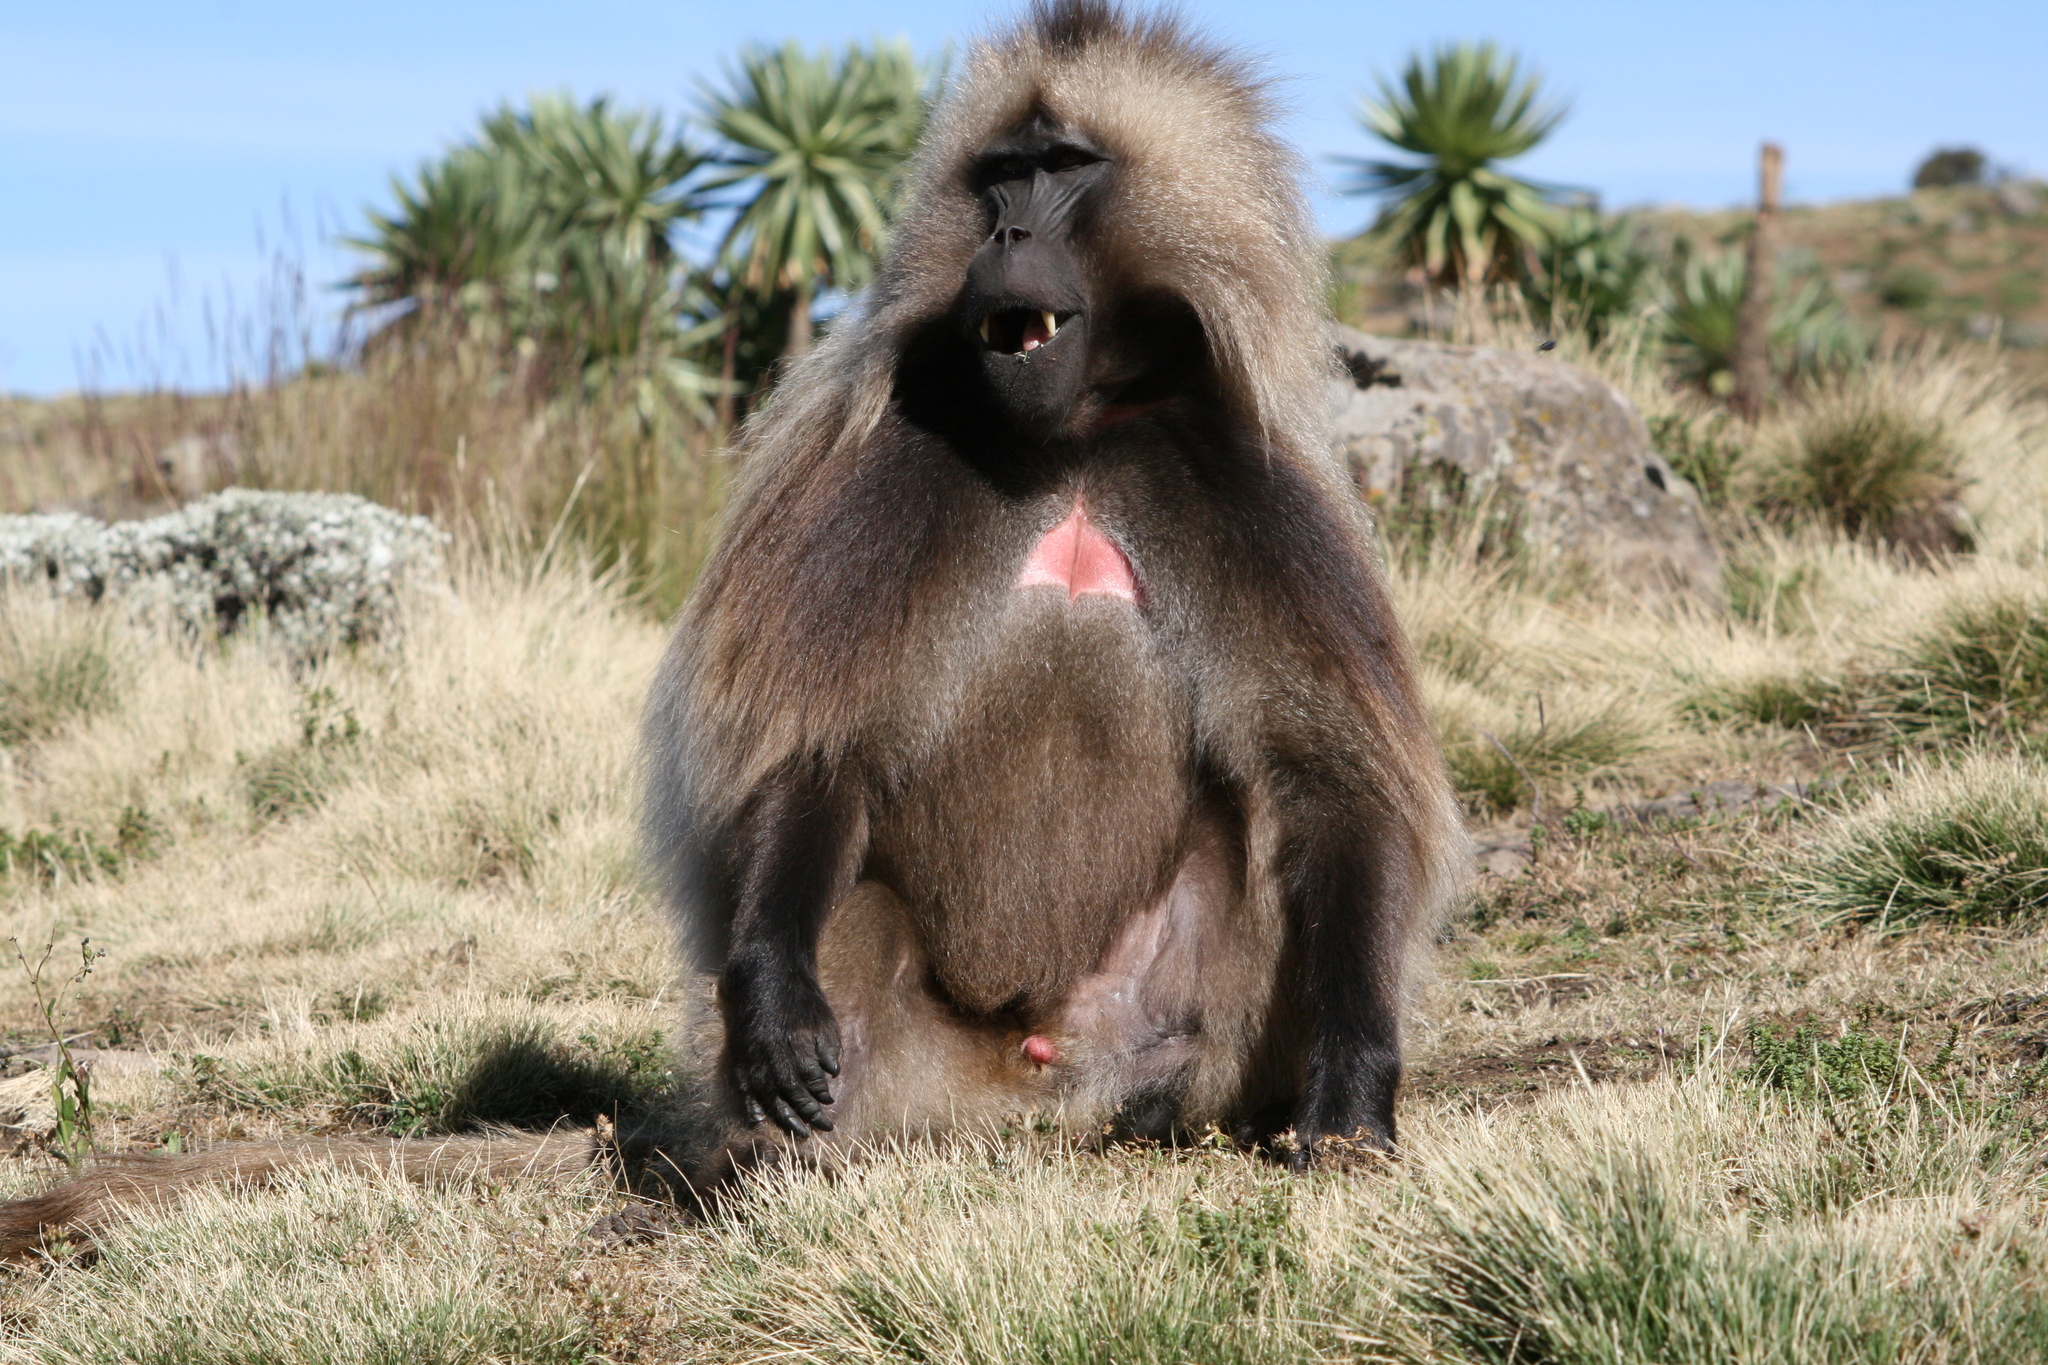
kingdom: Animalia
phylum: Chordata
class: Mammalia
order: Primates
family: Cercopithecidae
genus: Theropithecus
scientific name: Theropithecus gelada
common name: Gelada
